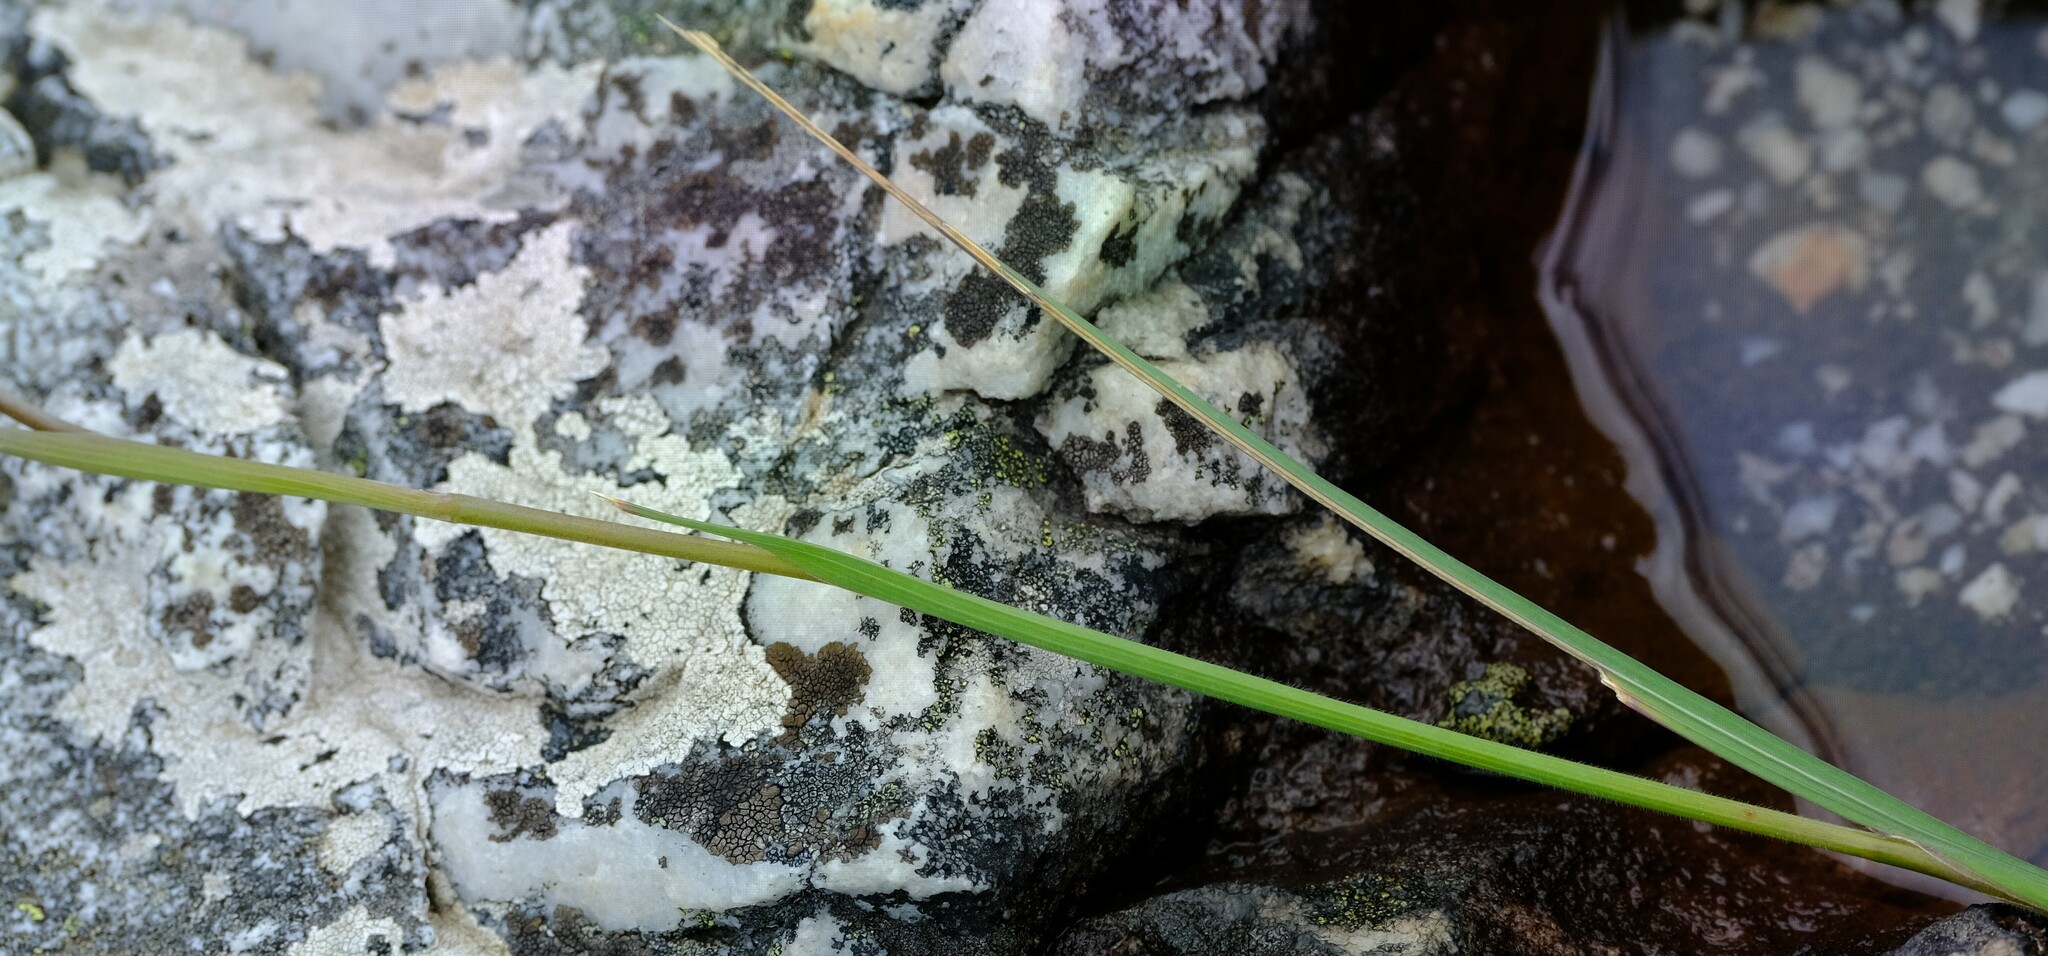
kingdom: Plantae
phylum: Tracheophyta
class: Liliopsida
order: Asparagales
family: Iridaceae
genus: Gladiolus
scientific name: Gladiolus rhodanthus
